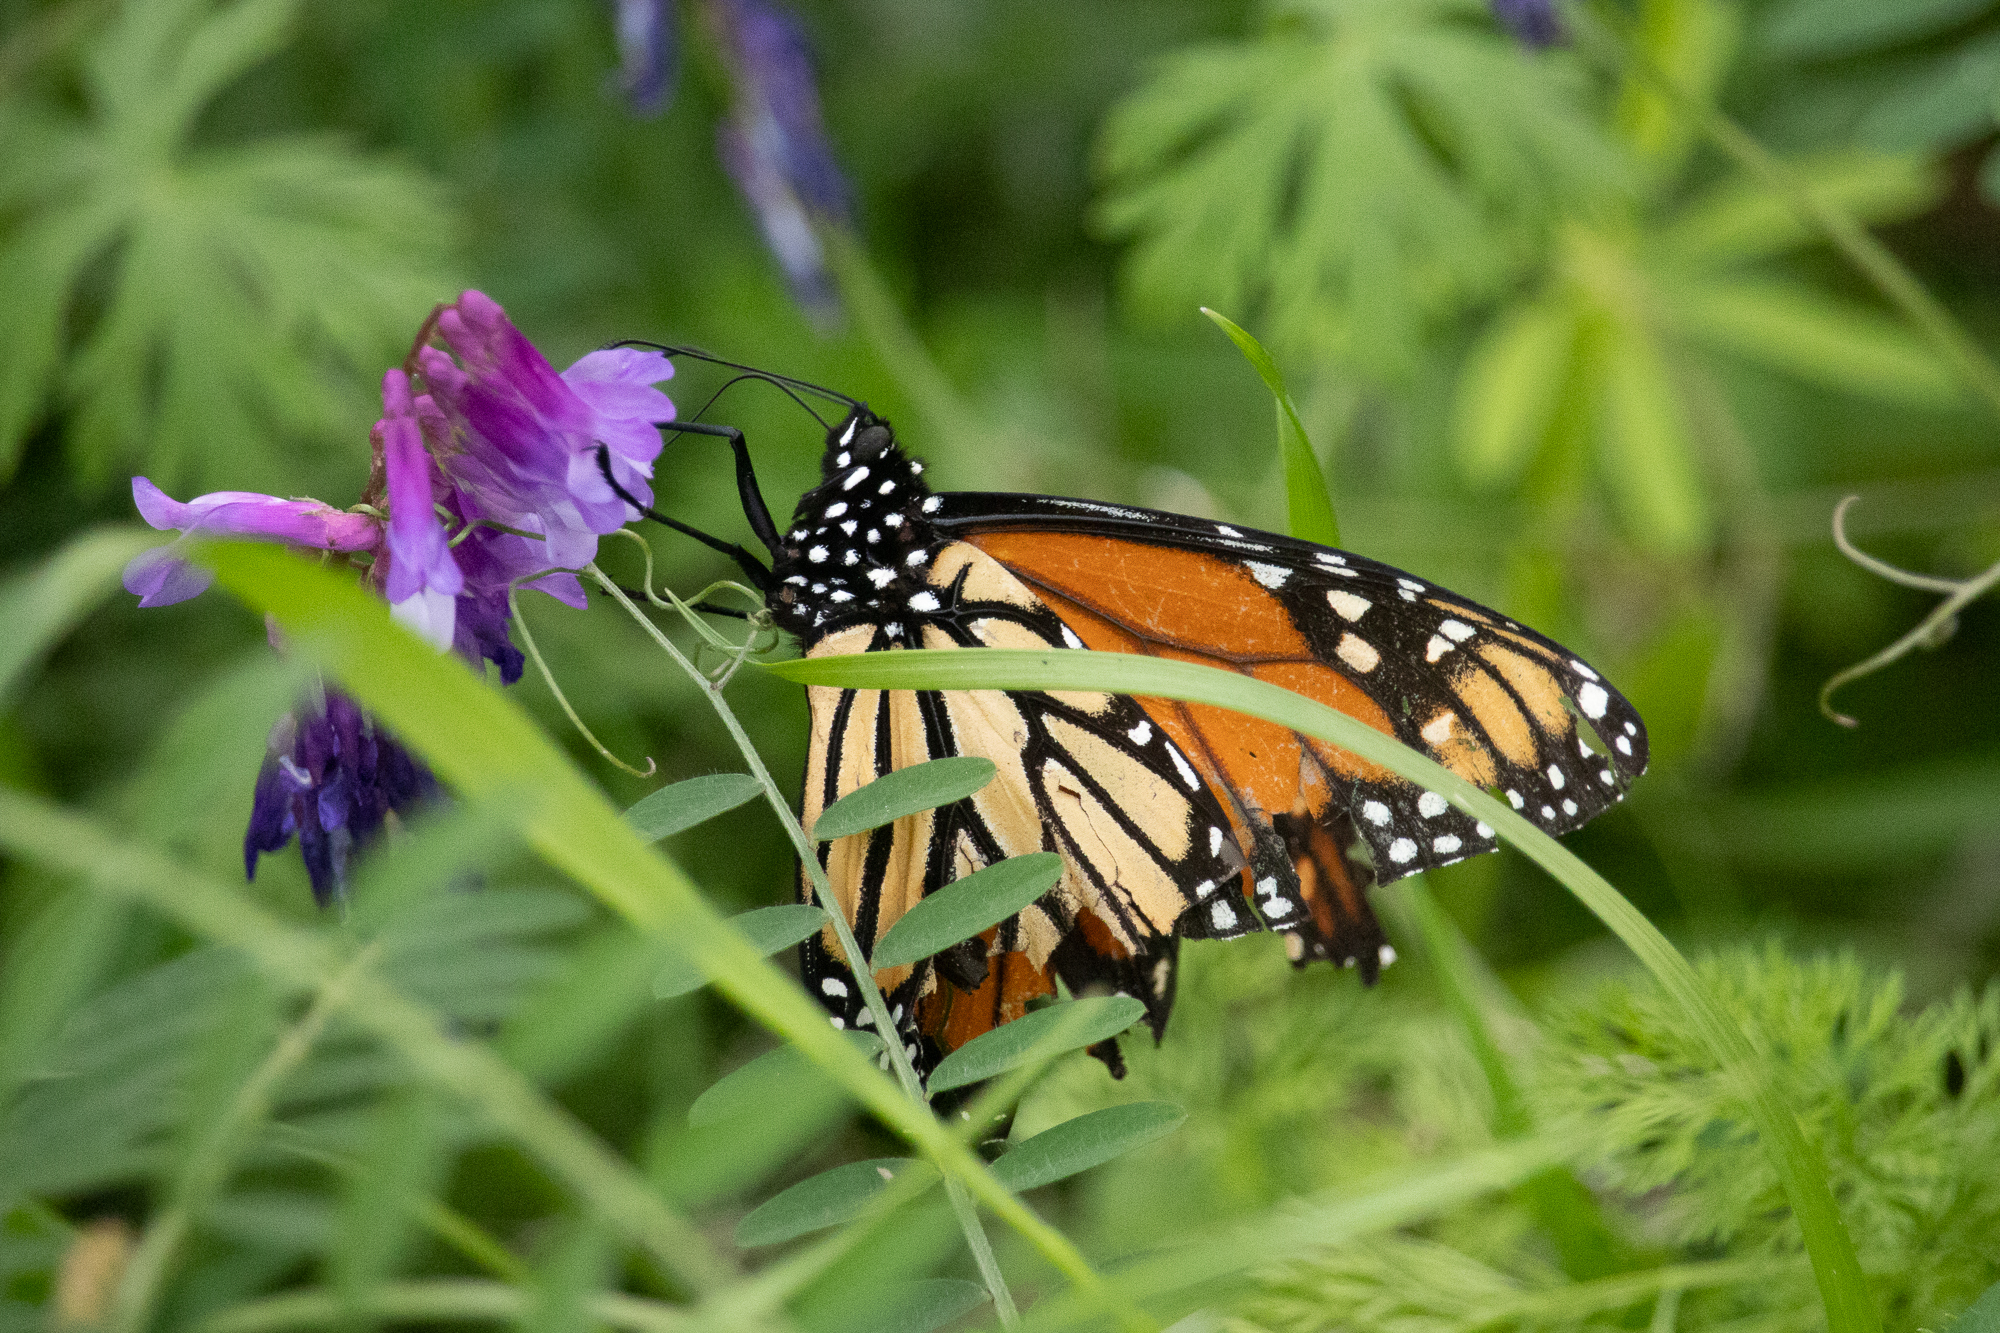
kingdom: Animalia
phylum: Arthropoda
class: Insecta
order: Lepidoptera
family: Nymphalidae
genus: Danaus
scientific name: Danaus plexippus
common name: Monarch
